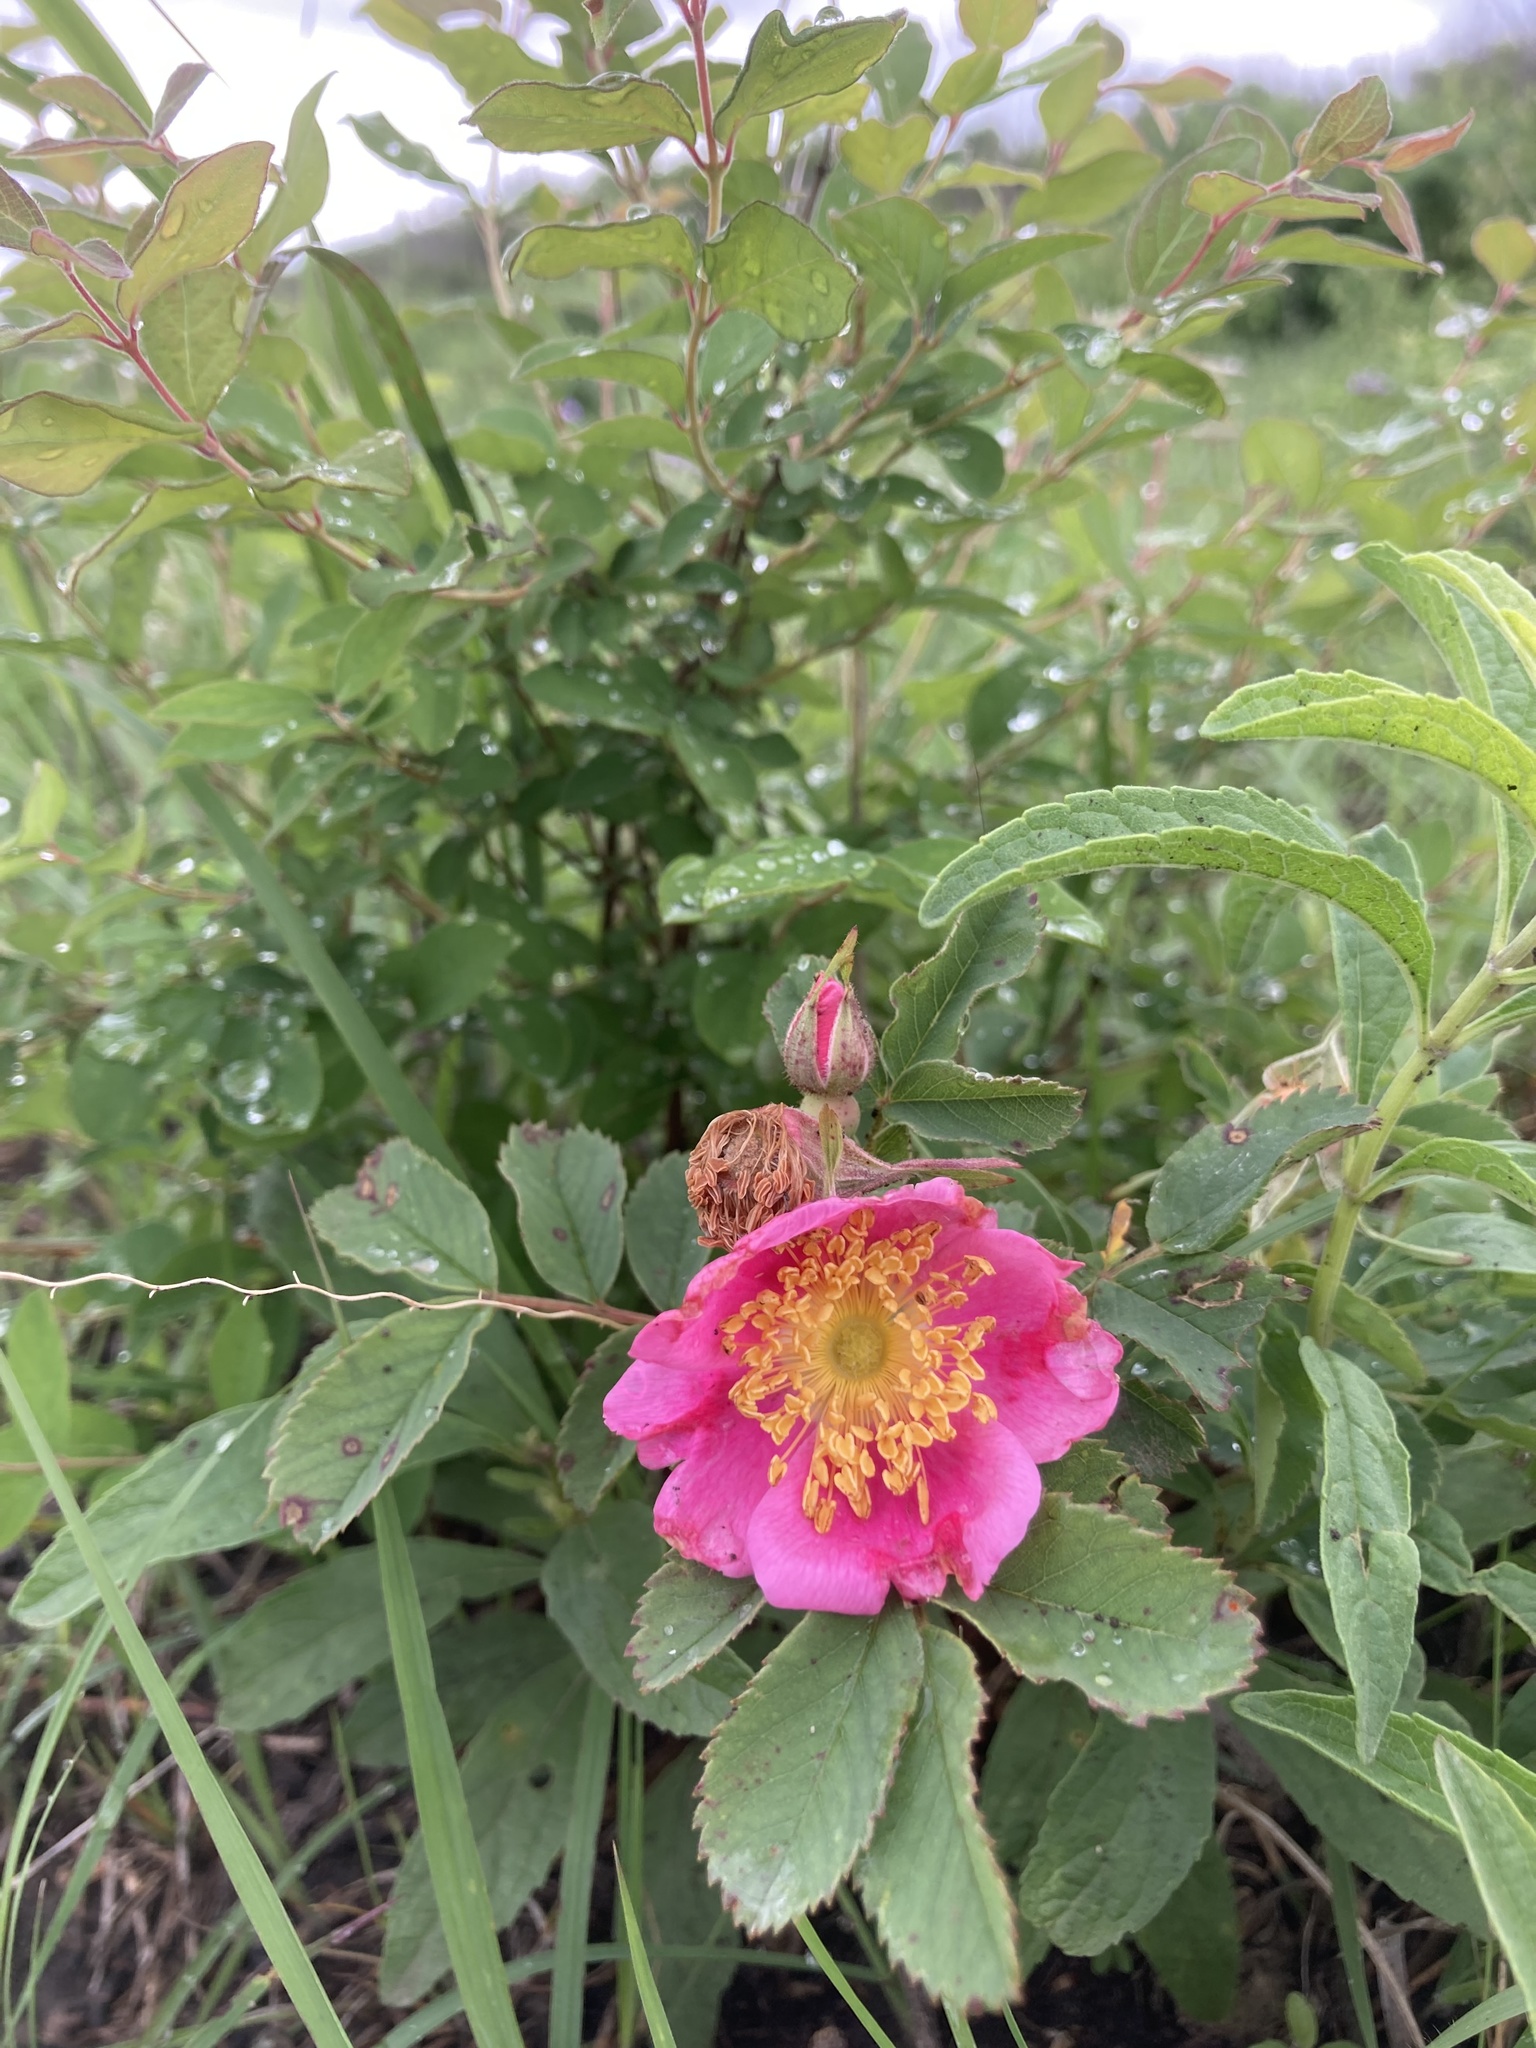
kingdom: Plantae
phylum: Tracheophyta
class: Magnoliopsida
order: Rosales
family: Rosaceae
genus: Rosa
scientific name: Rosa arkansana
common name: Prairie rose
